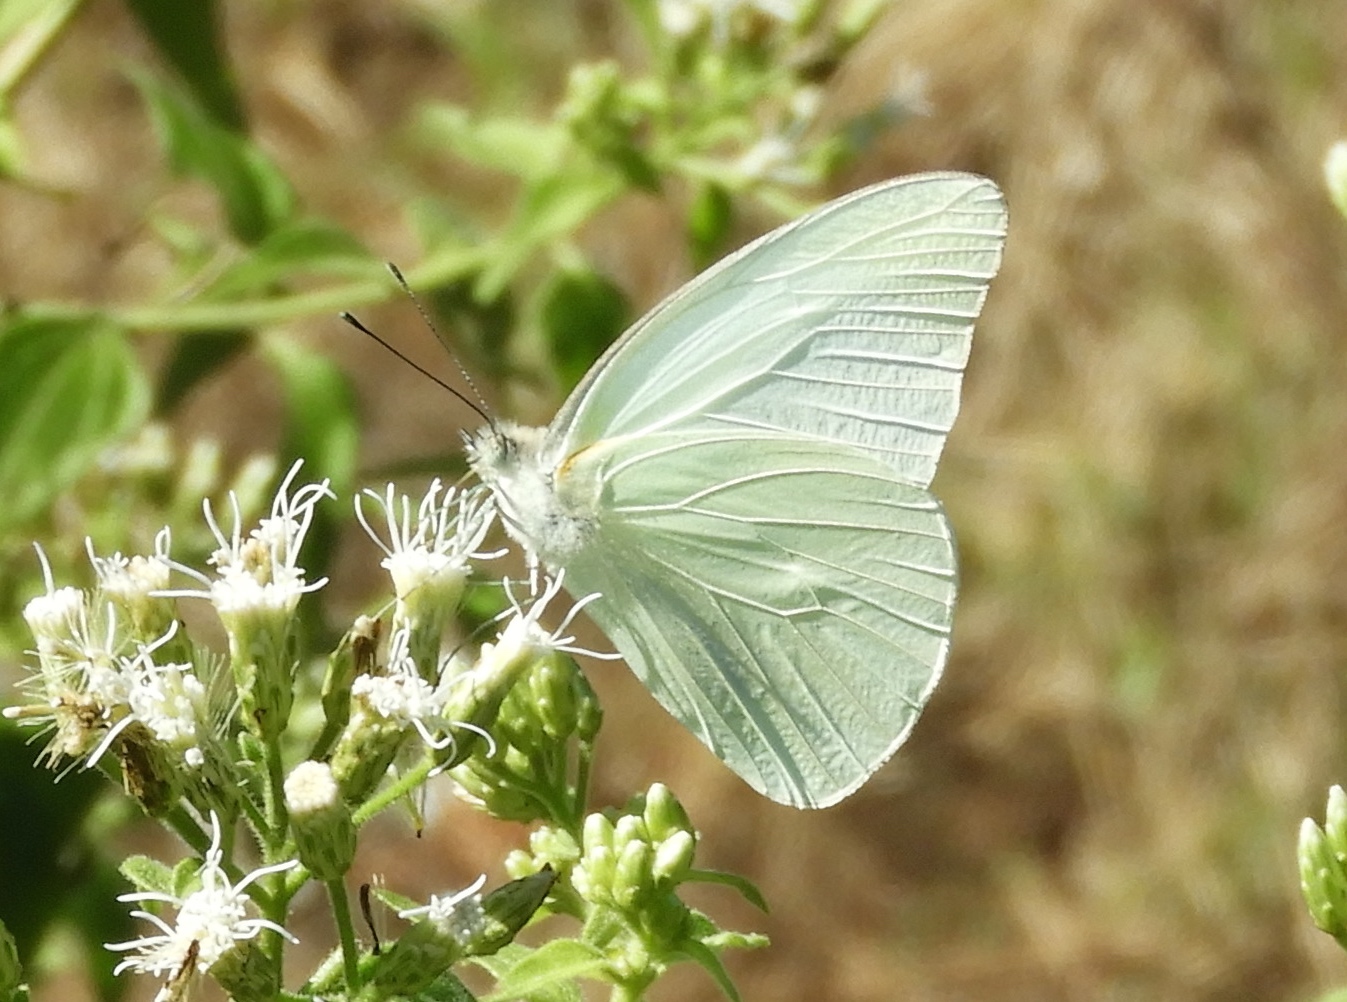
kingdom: Animalia
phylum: Arthropoda
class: Insecta
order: Lepidoptera
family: Pieridae
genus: Glutophrissa
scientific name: Glutophrissa drusilla
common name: Florida white
